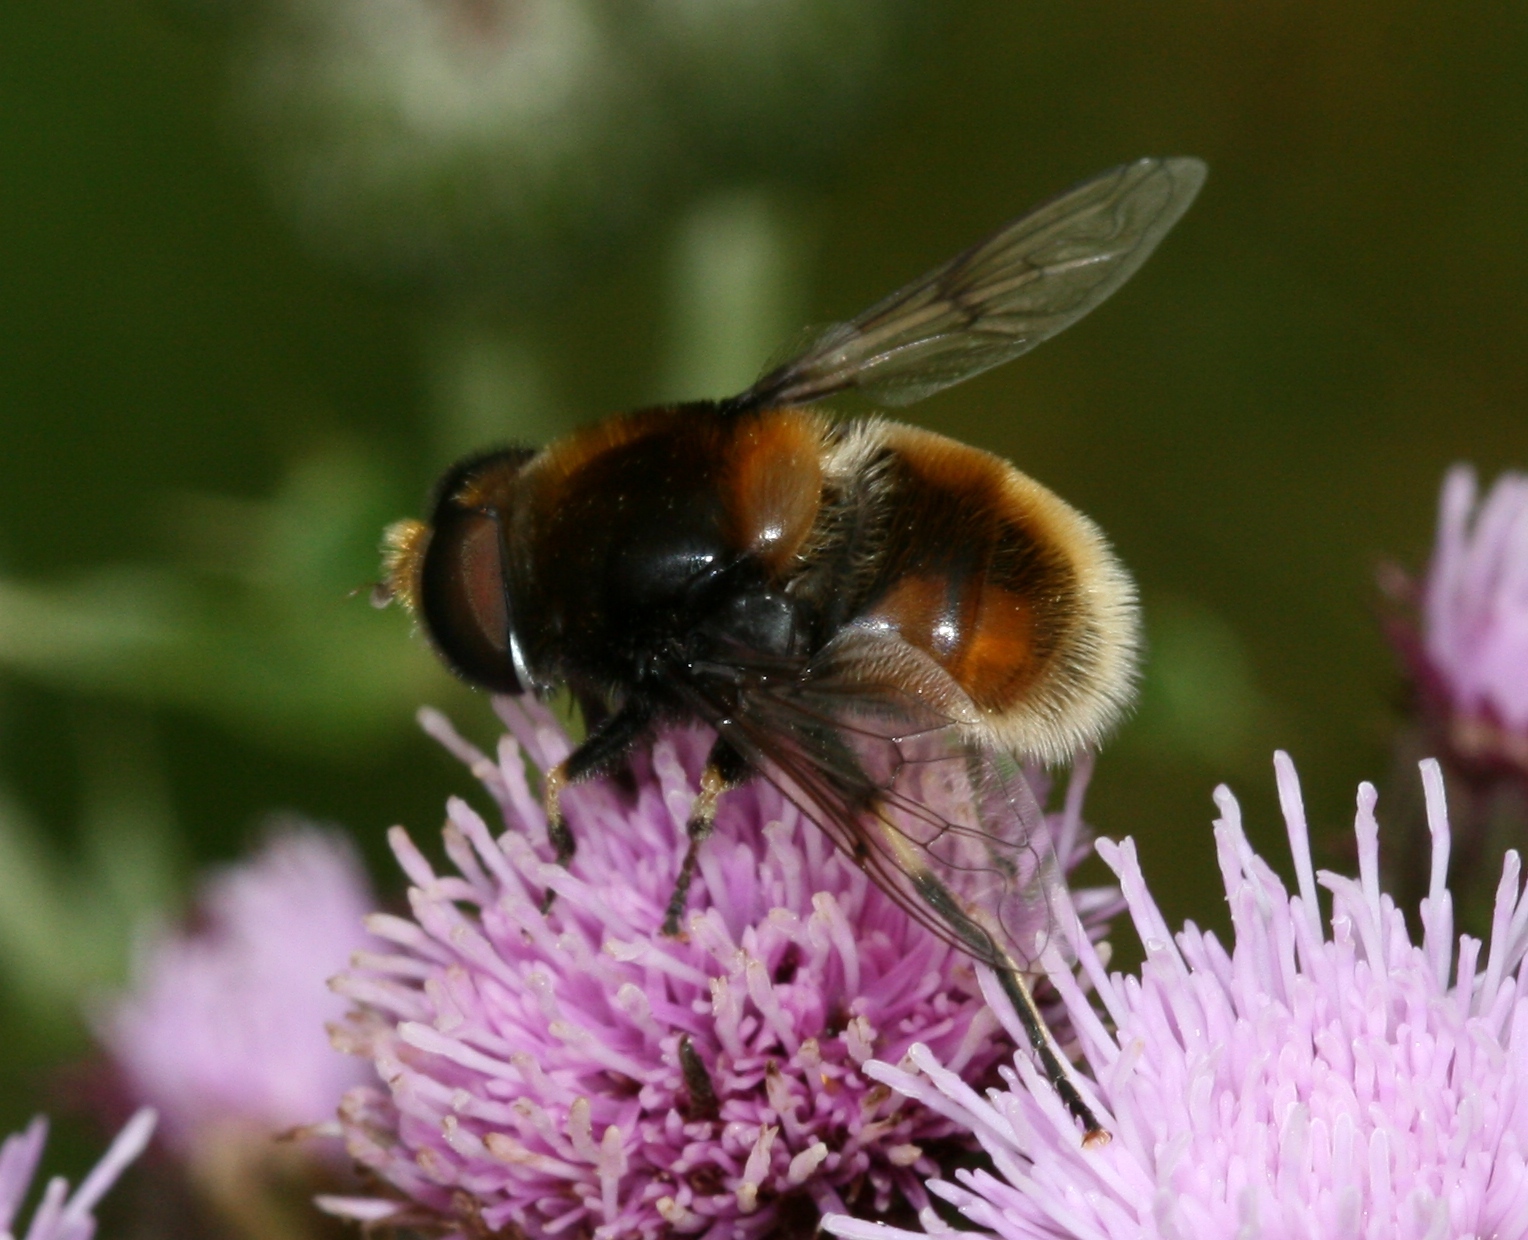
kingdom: Animalia
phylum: Arthropoda
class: Insecta
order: Diptera
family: Syrphidae
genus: Eristalis
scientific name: Eristalis intricaria
